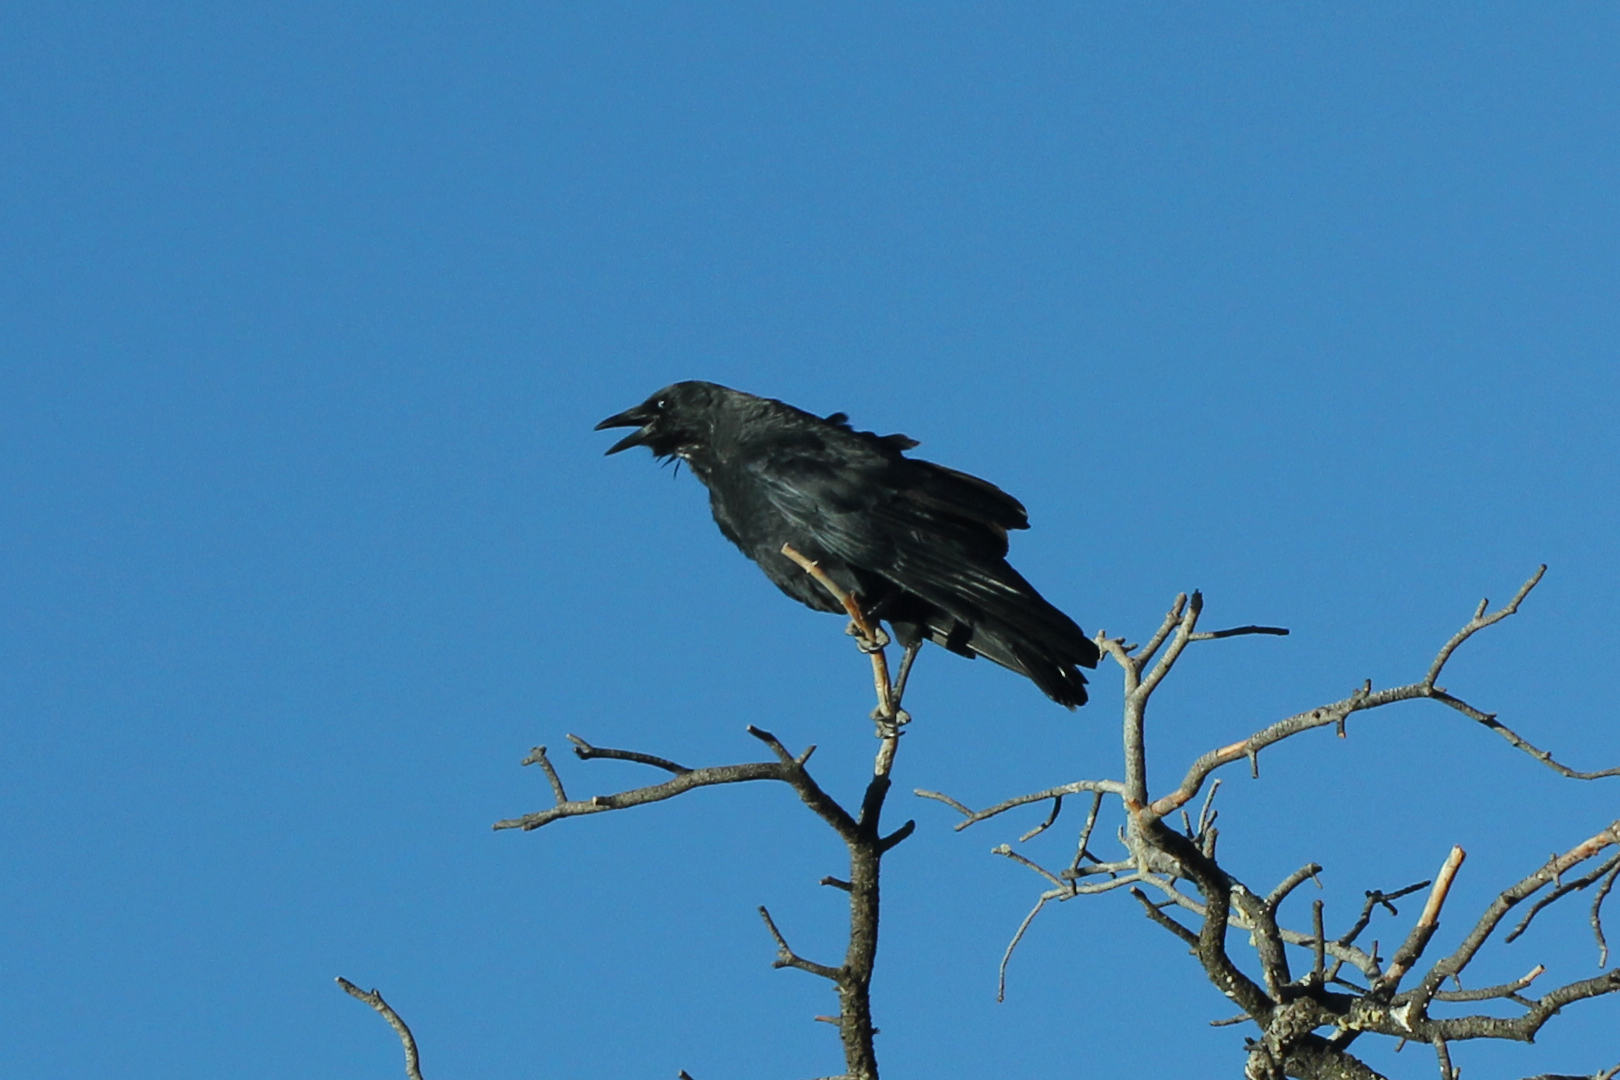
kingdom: Animalia
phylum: Chordata
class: Aves
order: Passeriformes
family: Corvidae
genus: Corvus
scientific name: Corvus brachyrhynchos
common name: American crow
